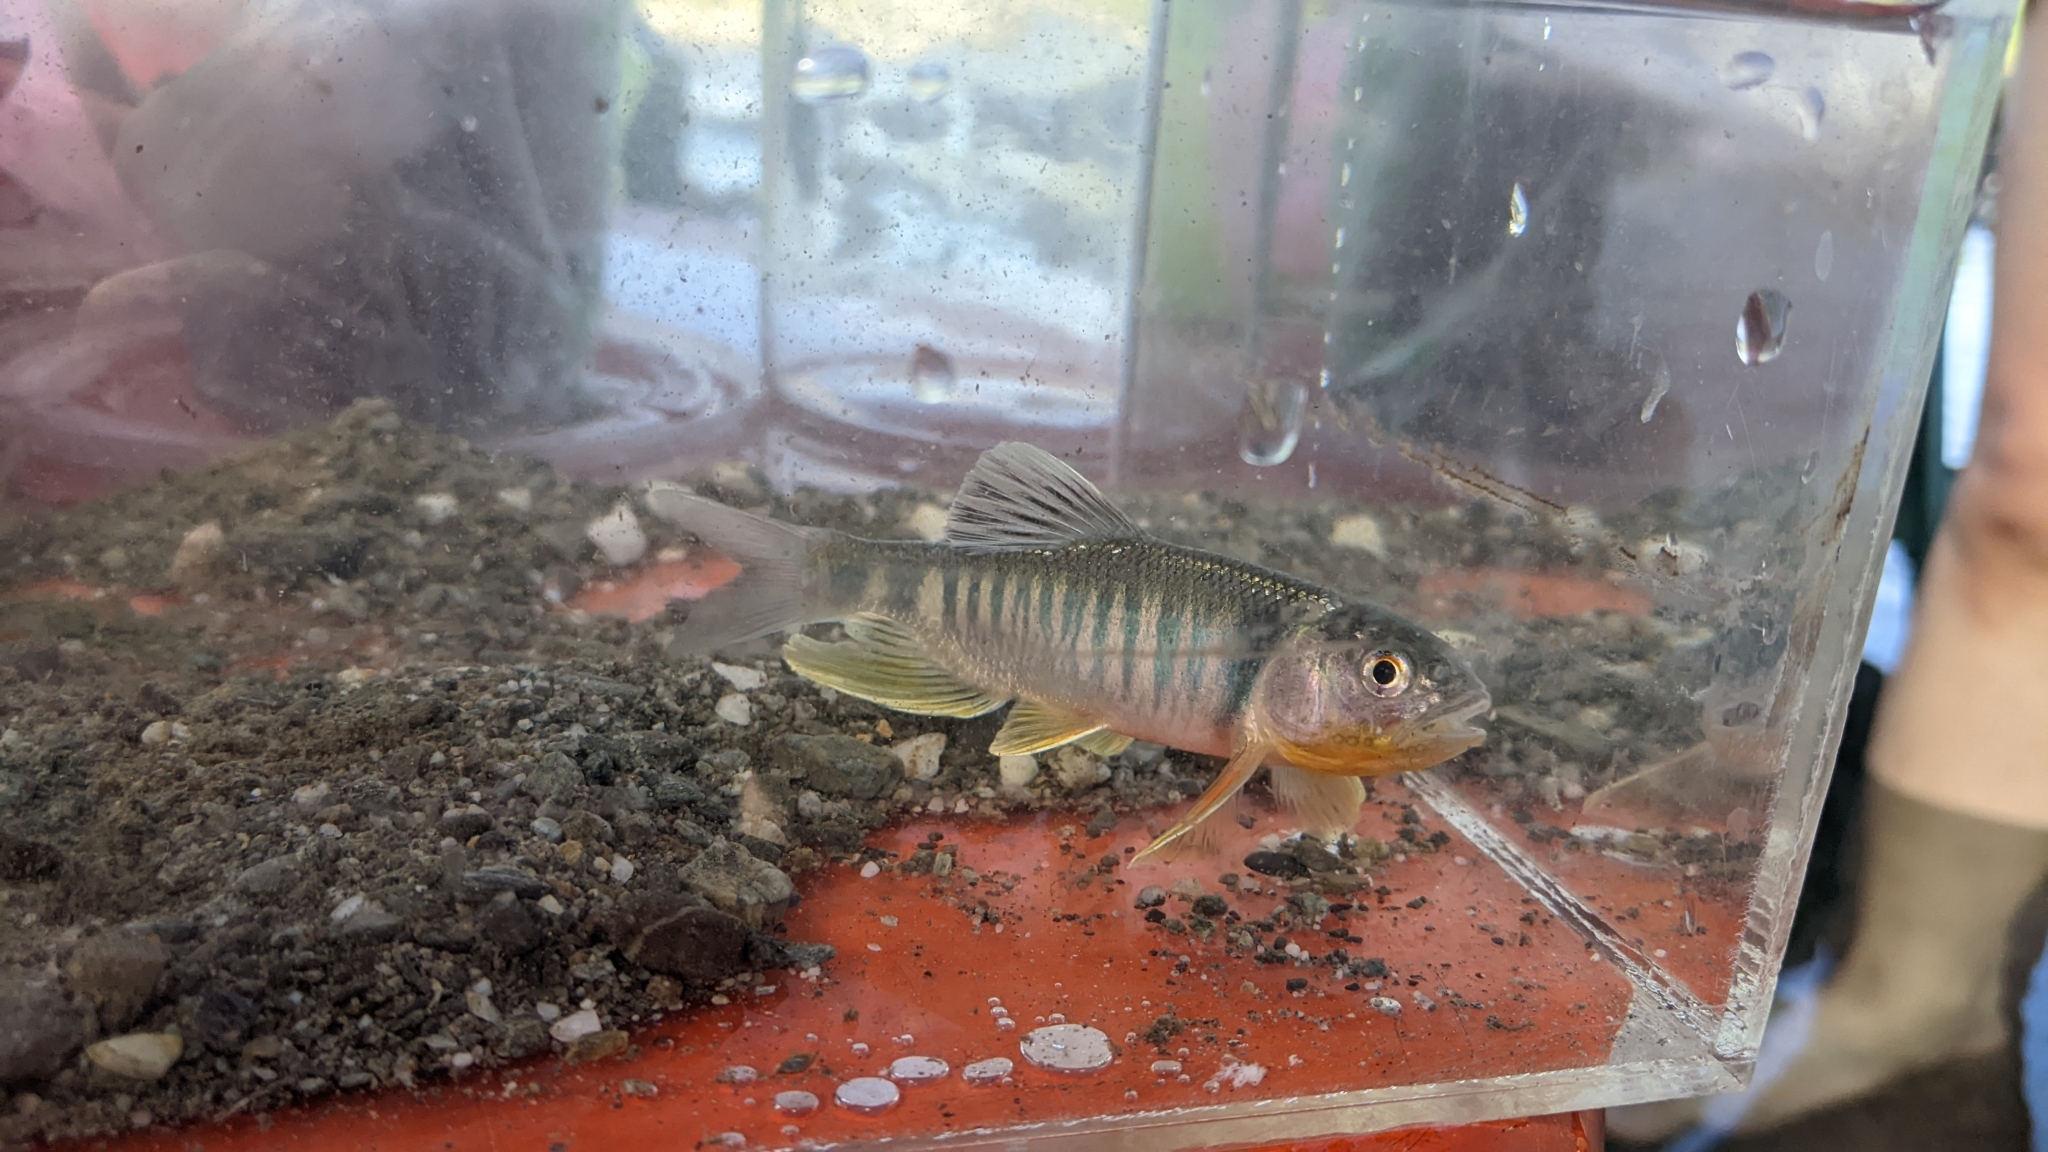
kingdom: Animalia
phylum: Chordata
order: Cypriniformes
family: Cyprinidae
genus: Opsariichthys
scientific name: Opsariichthys pachycephalus
